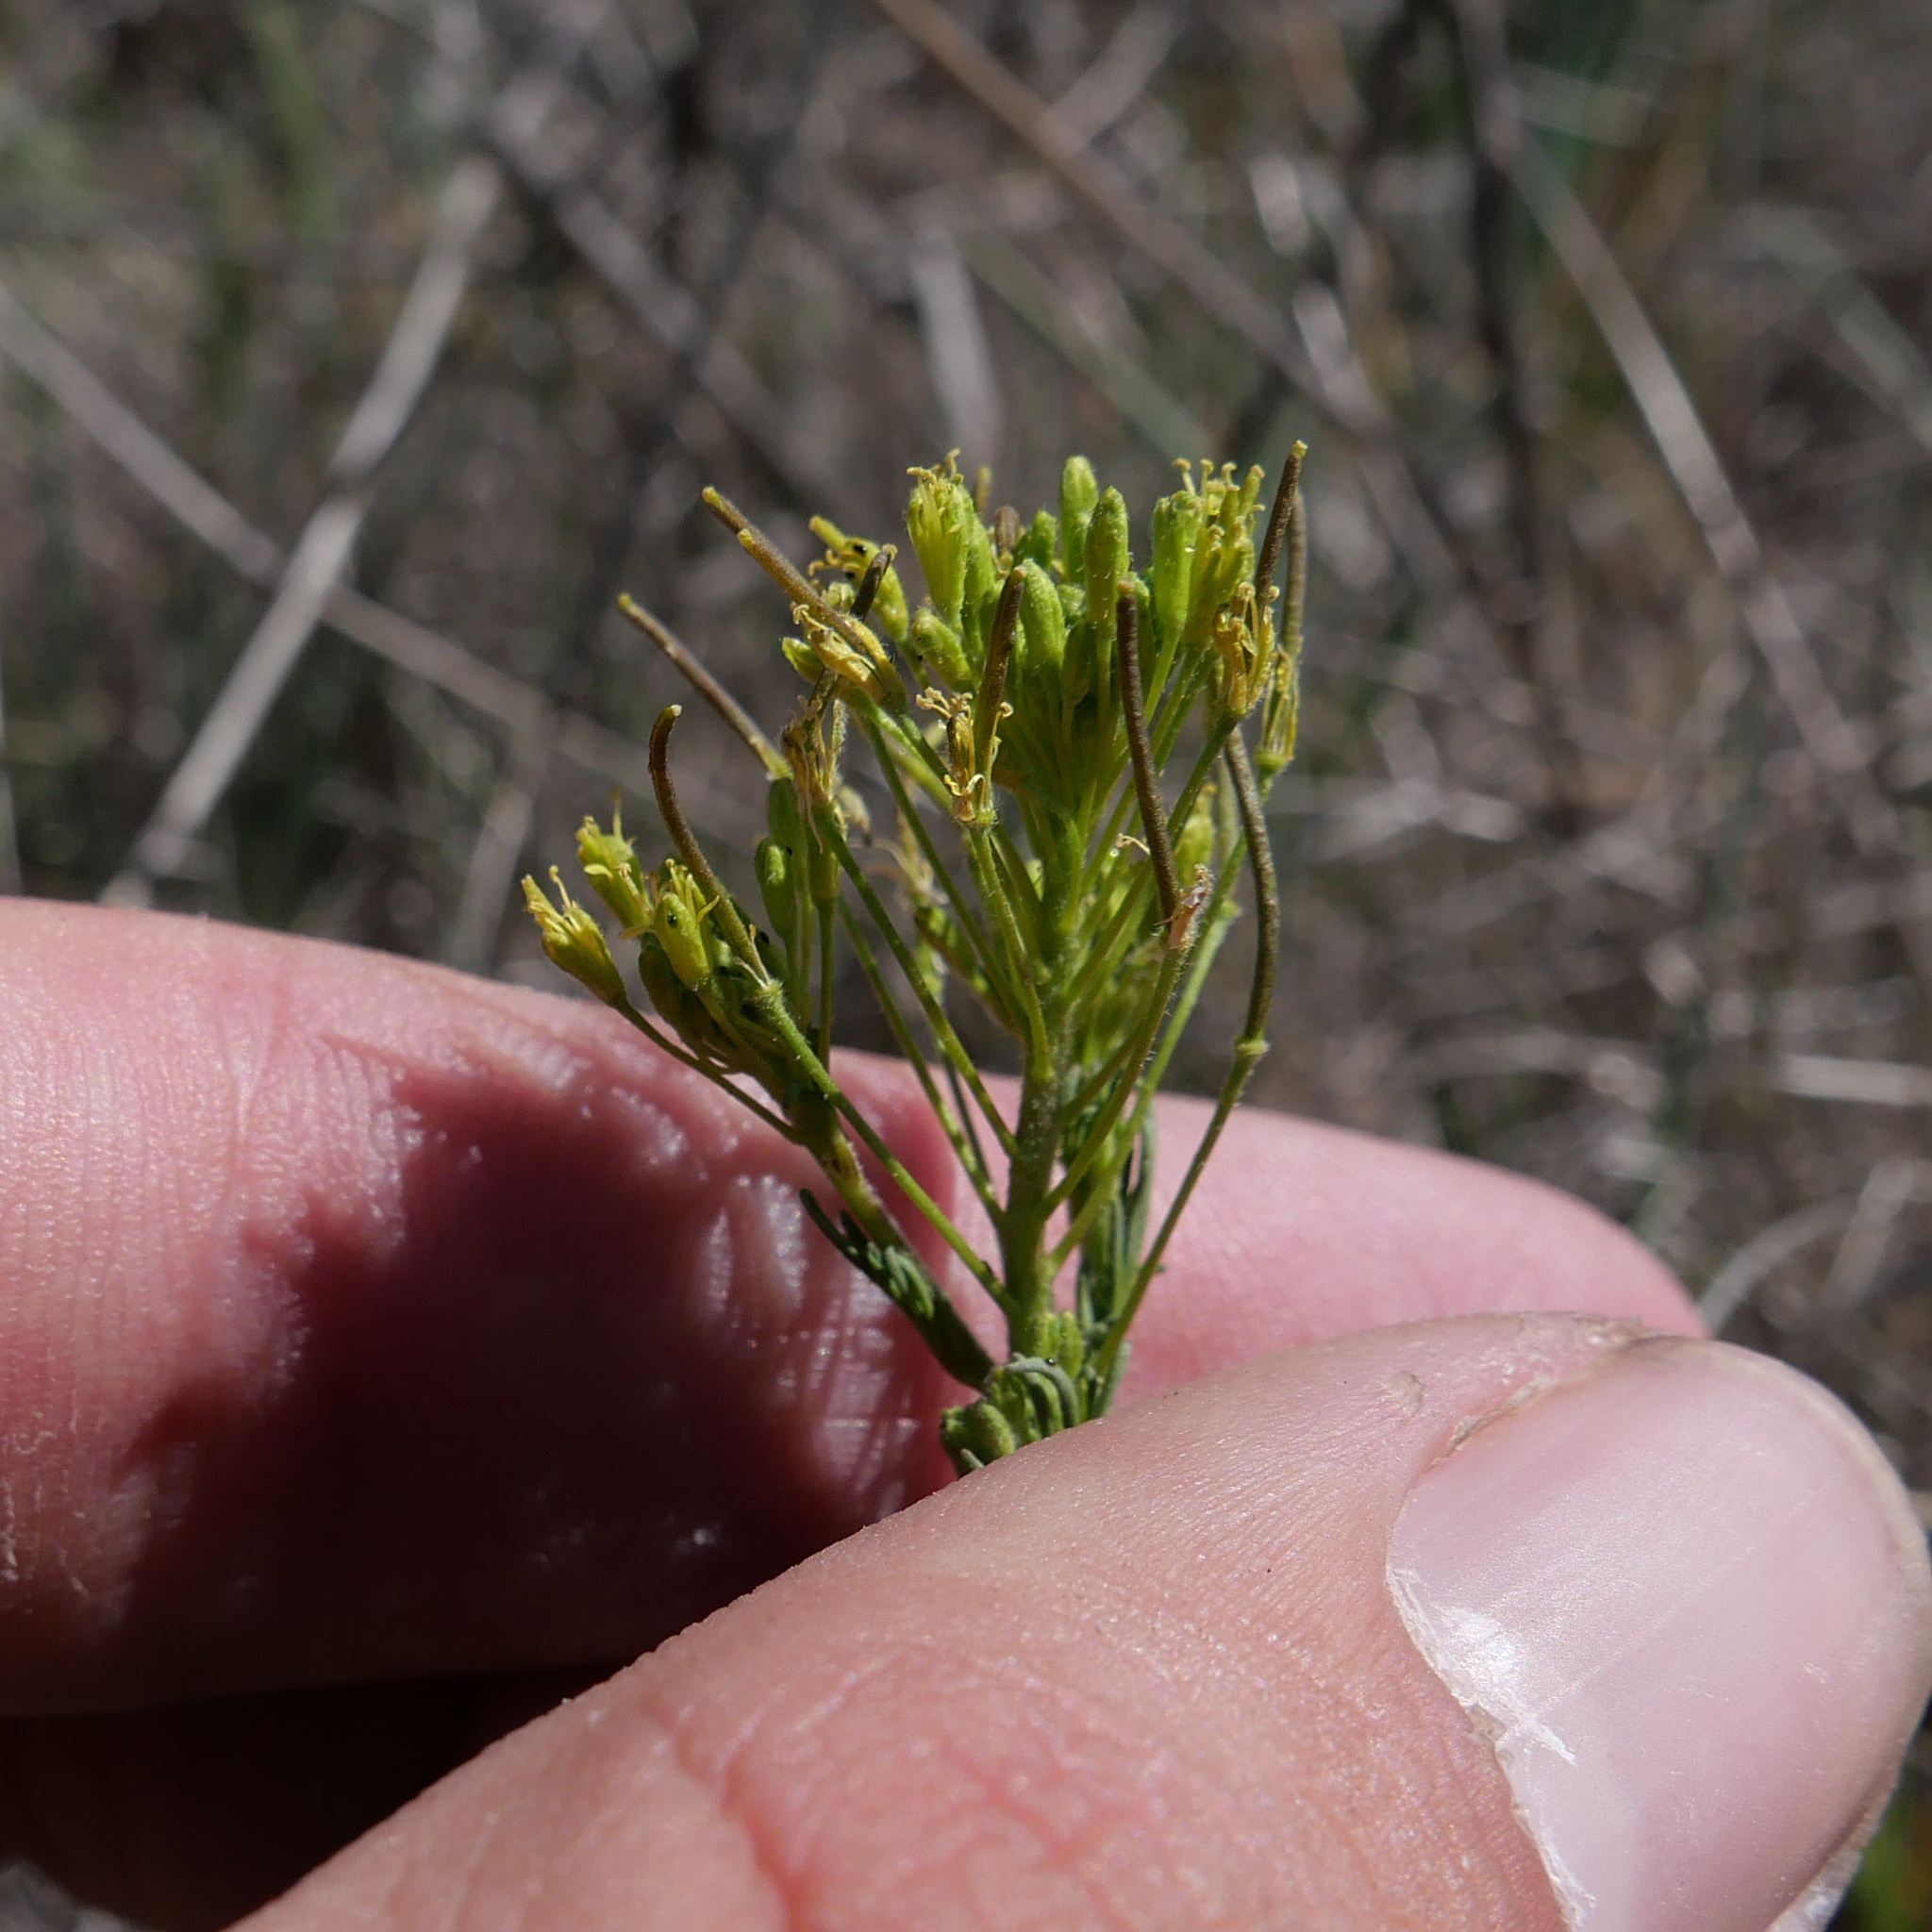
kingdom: Plantae
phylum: Tracheophyta
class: Magnoliopsida
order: Brassicales
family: Brassicaceae
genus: Descurainia
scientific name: Descurainia sophia
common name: Flixweed
